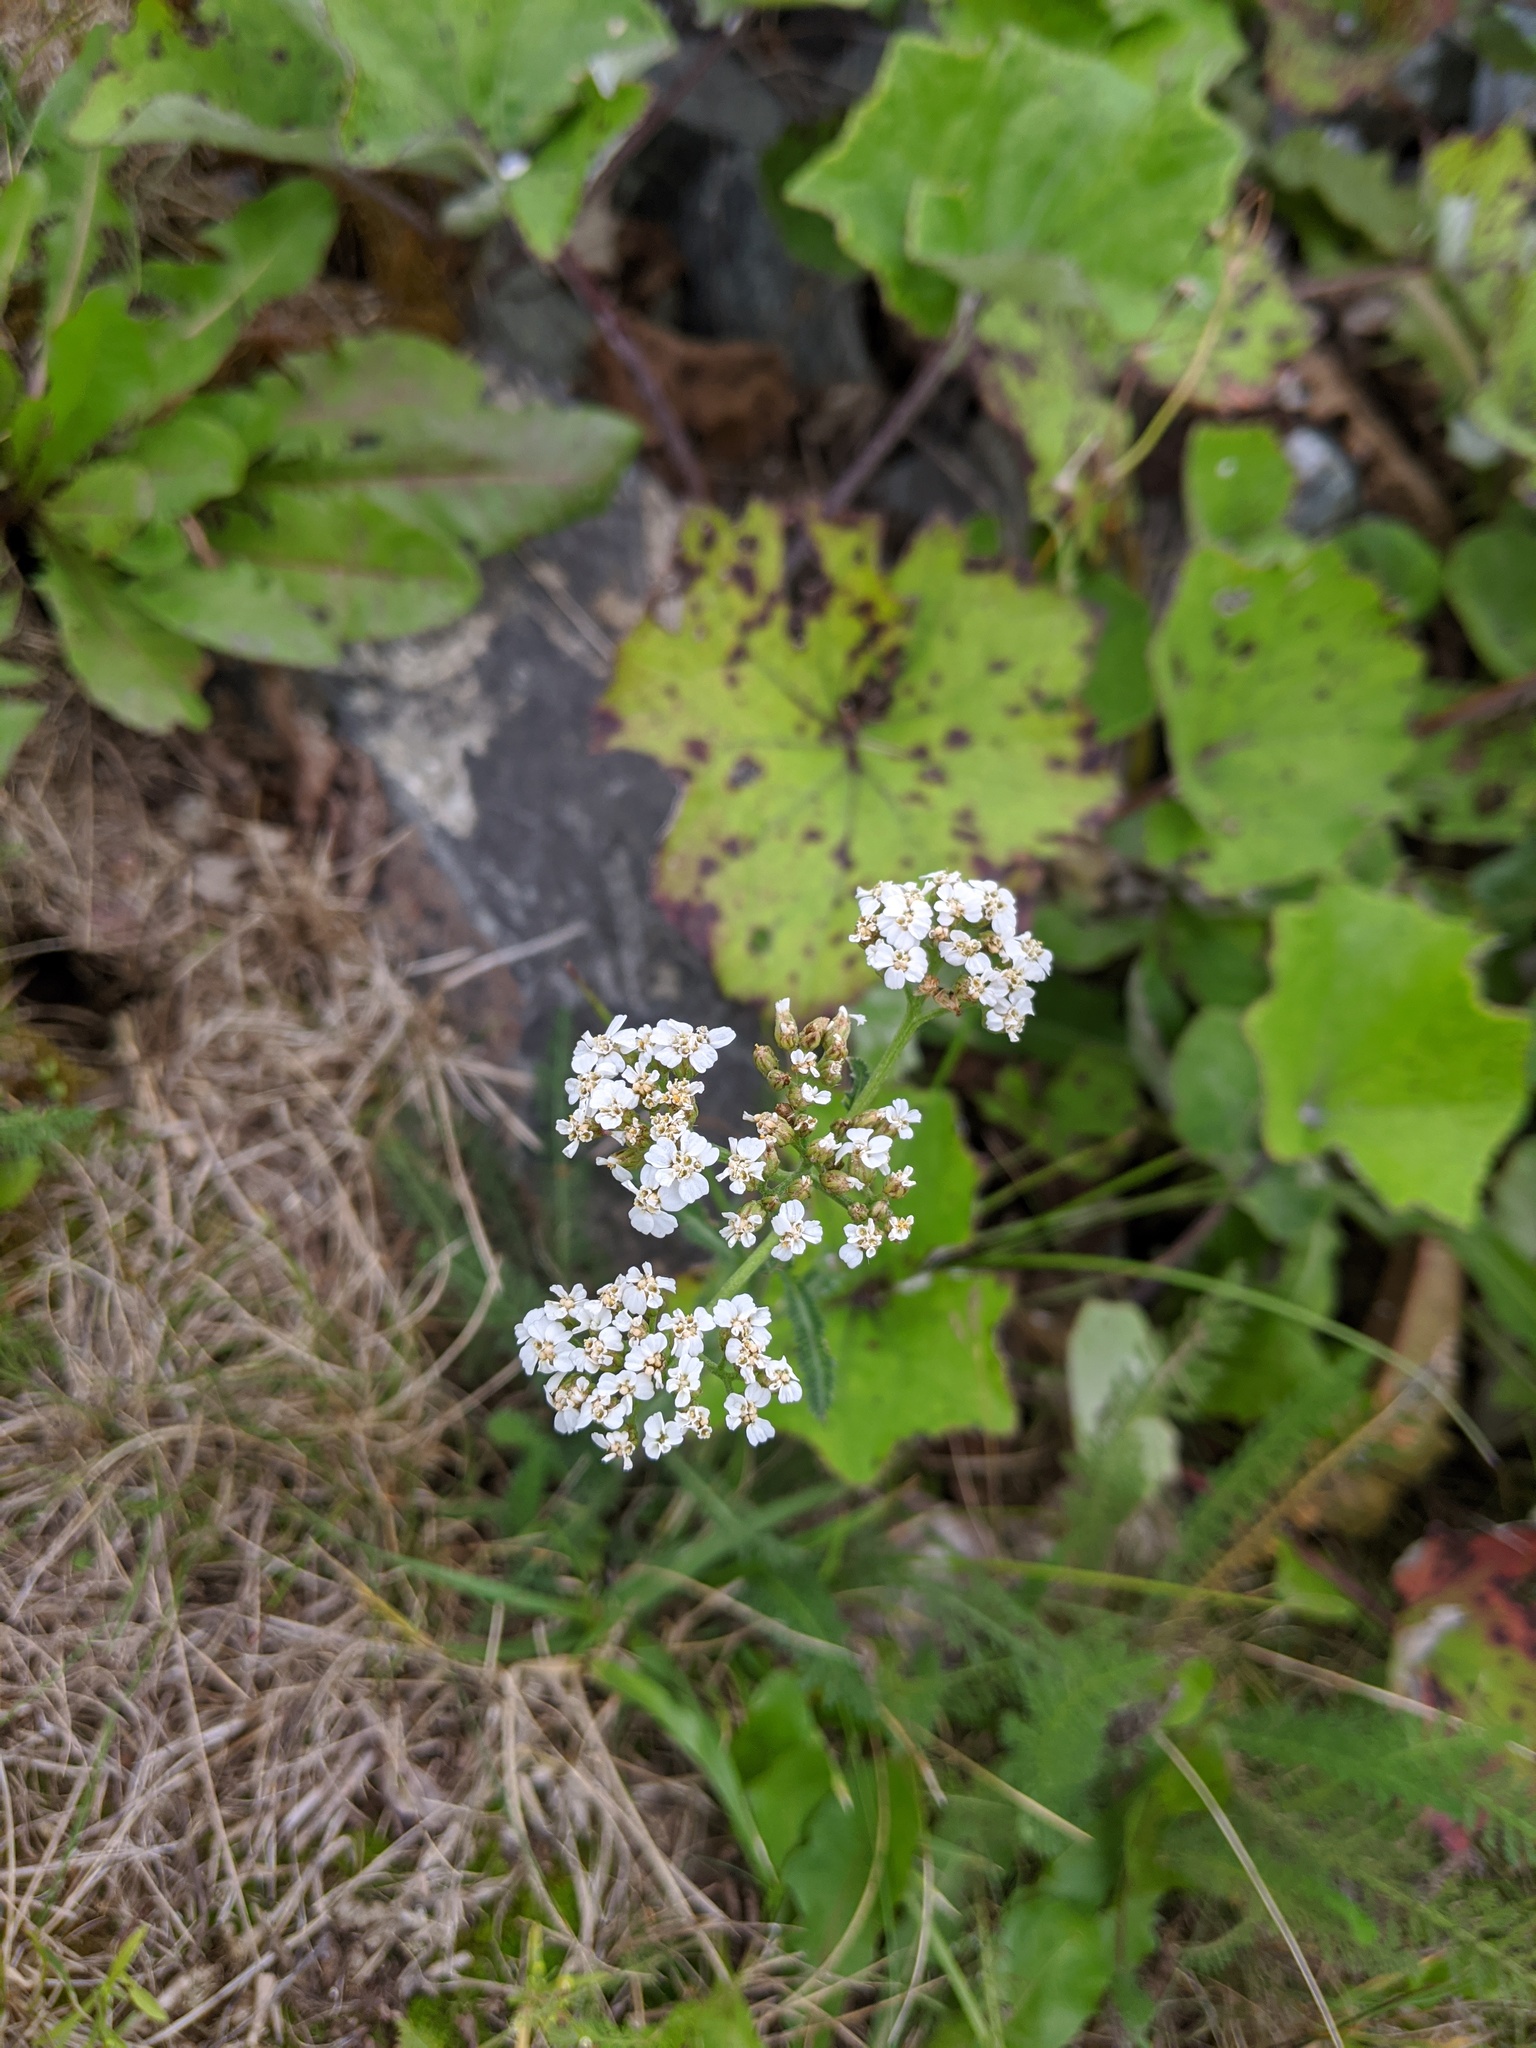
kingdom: Plantae
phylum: Tracheophyta
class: Magnoliopsida
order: Asterales
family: Asteraceae
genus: Achillea
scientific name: Achillea millefolium
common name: Yarrow
